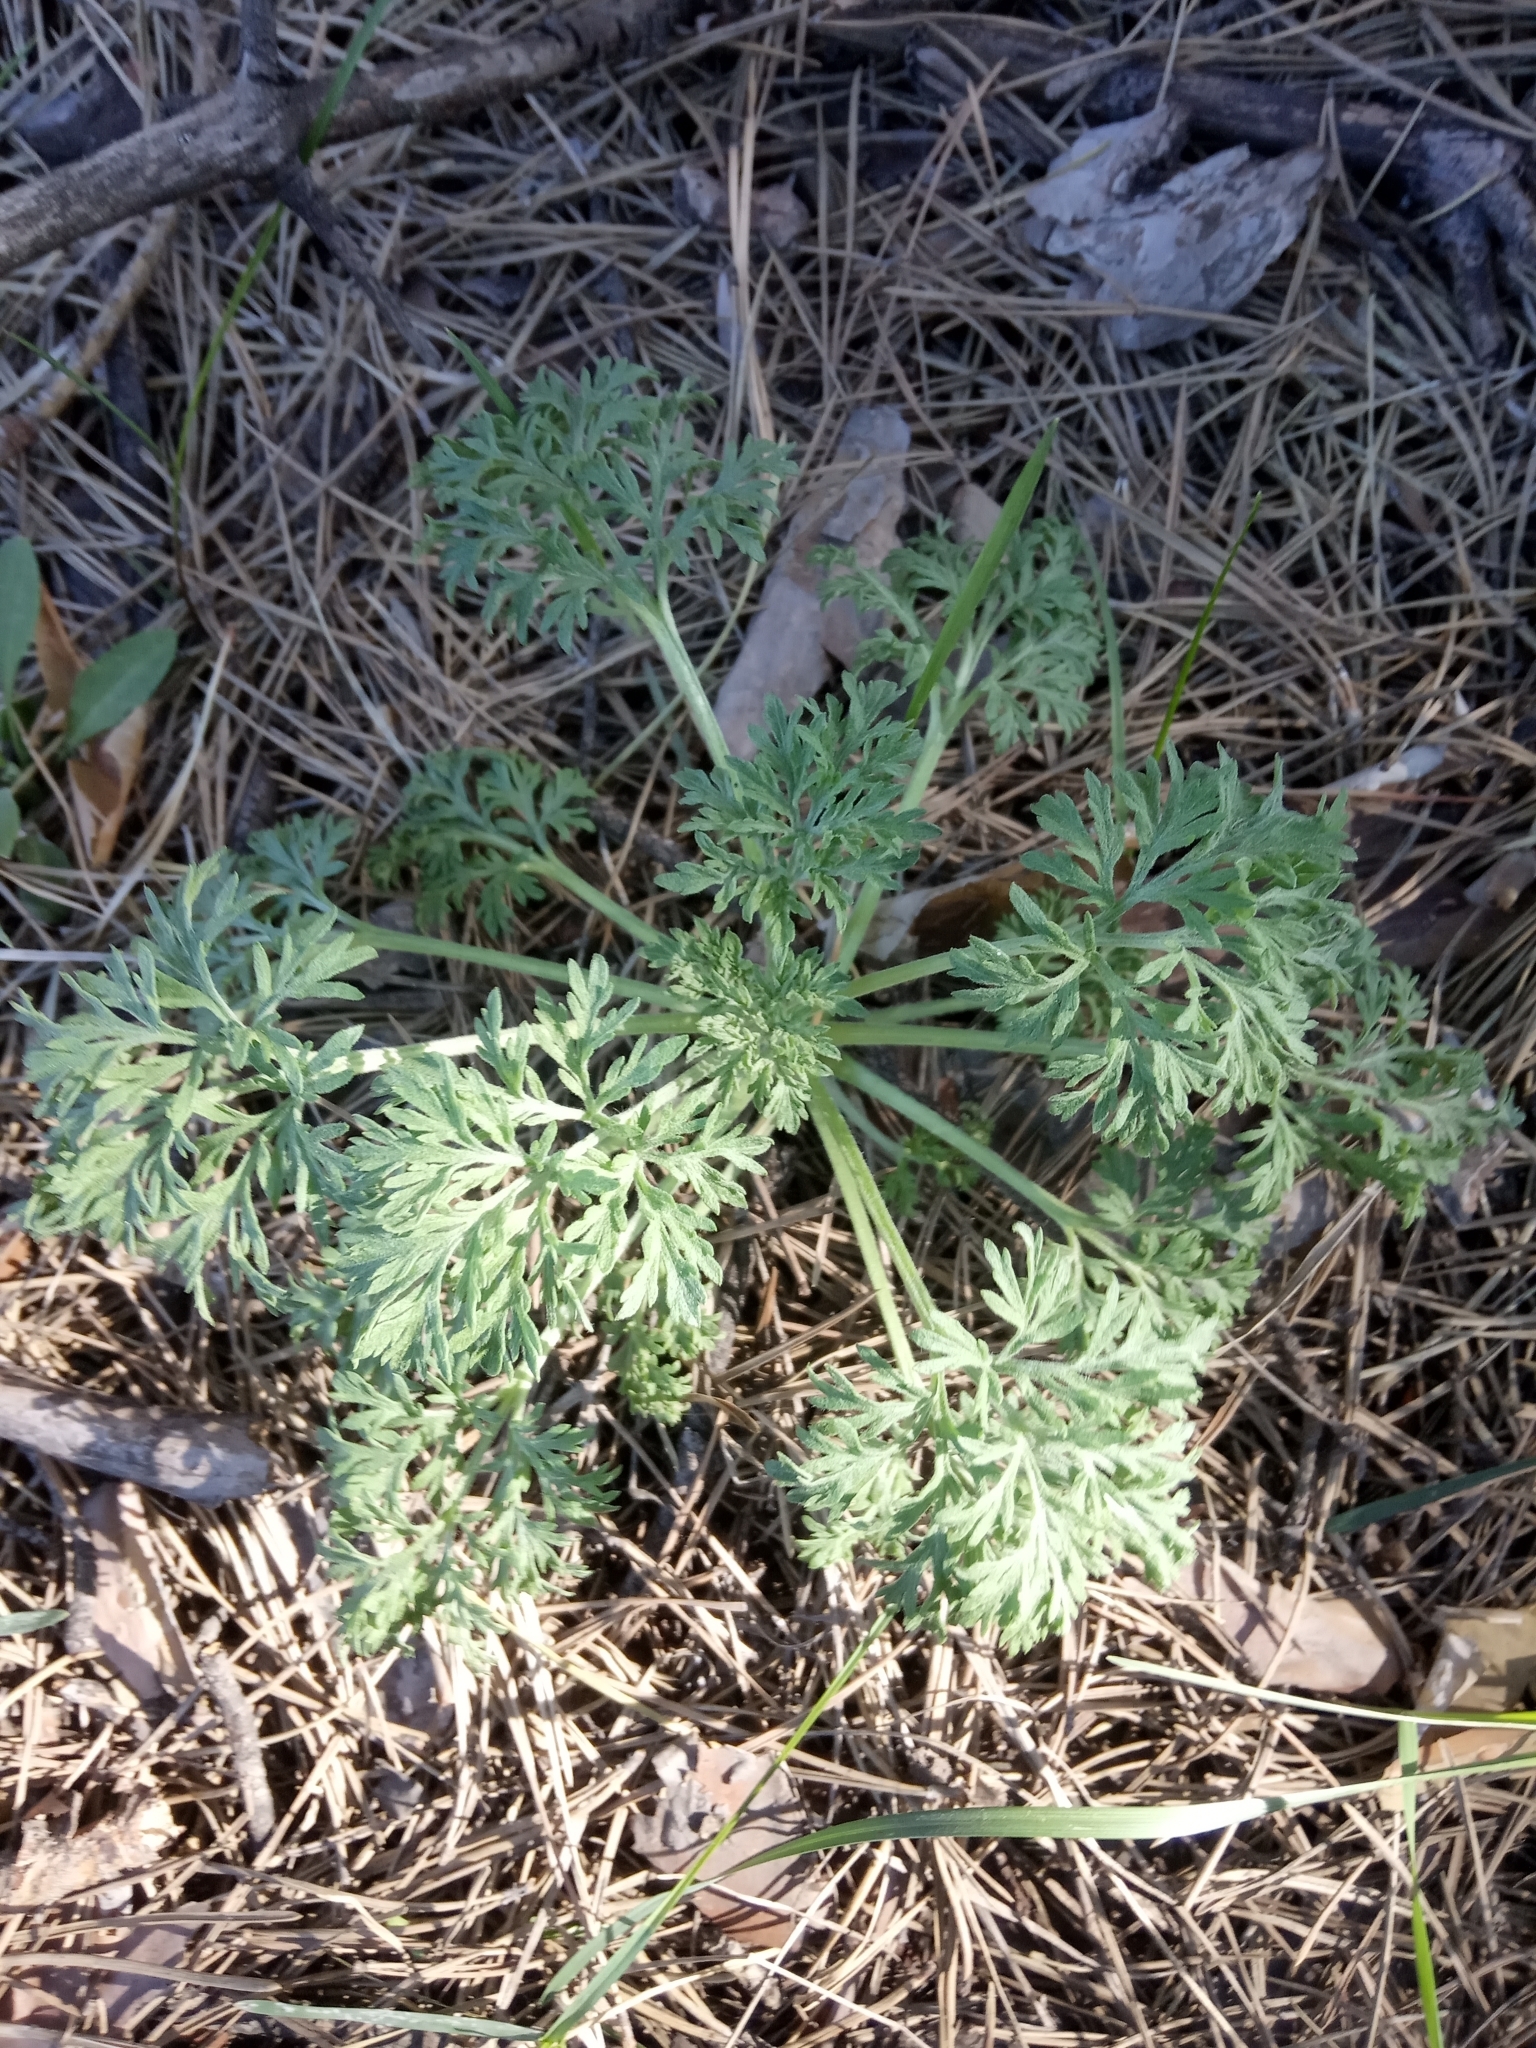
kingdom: Plantae
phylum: Tracheophyta
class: Magnoliopsida
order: Asterales
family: Asteraceae
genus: Artemisia
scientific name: Artemisia absinthium
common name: Wormwood
